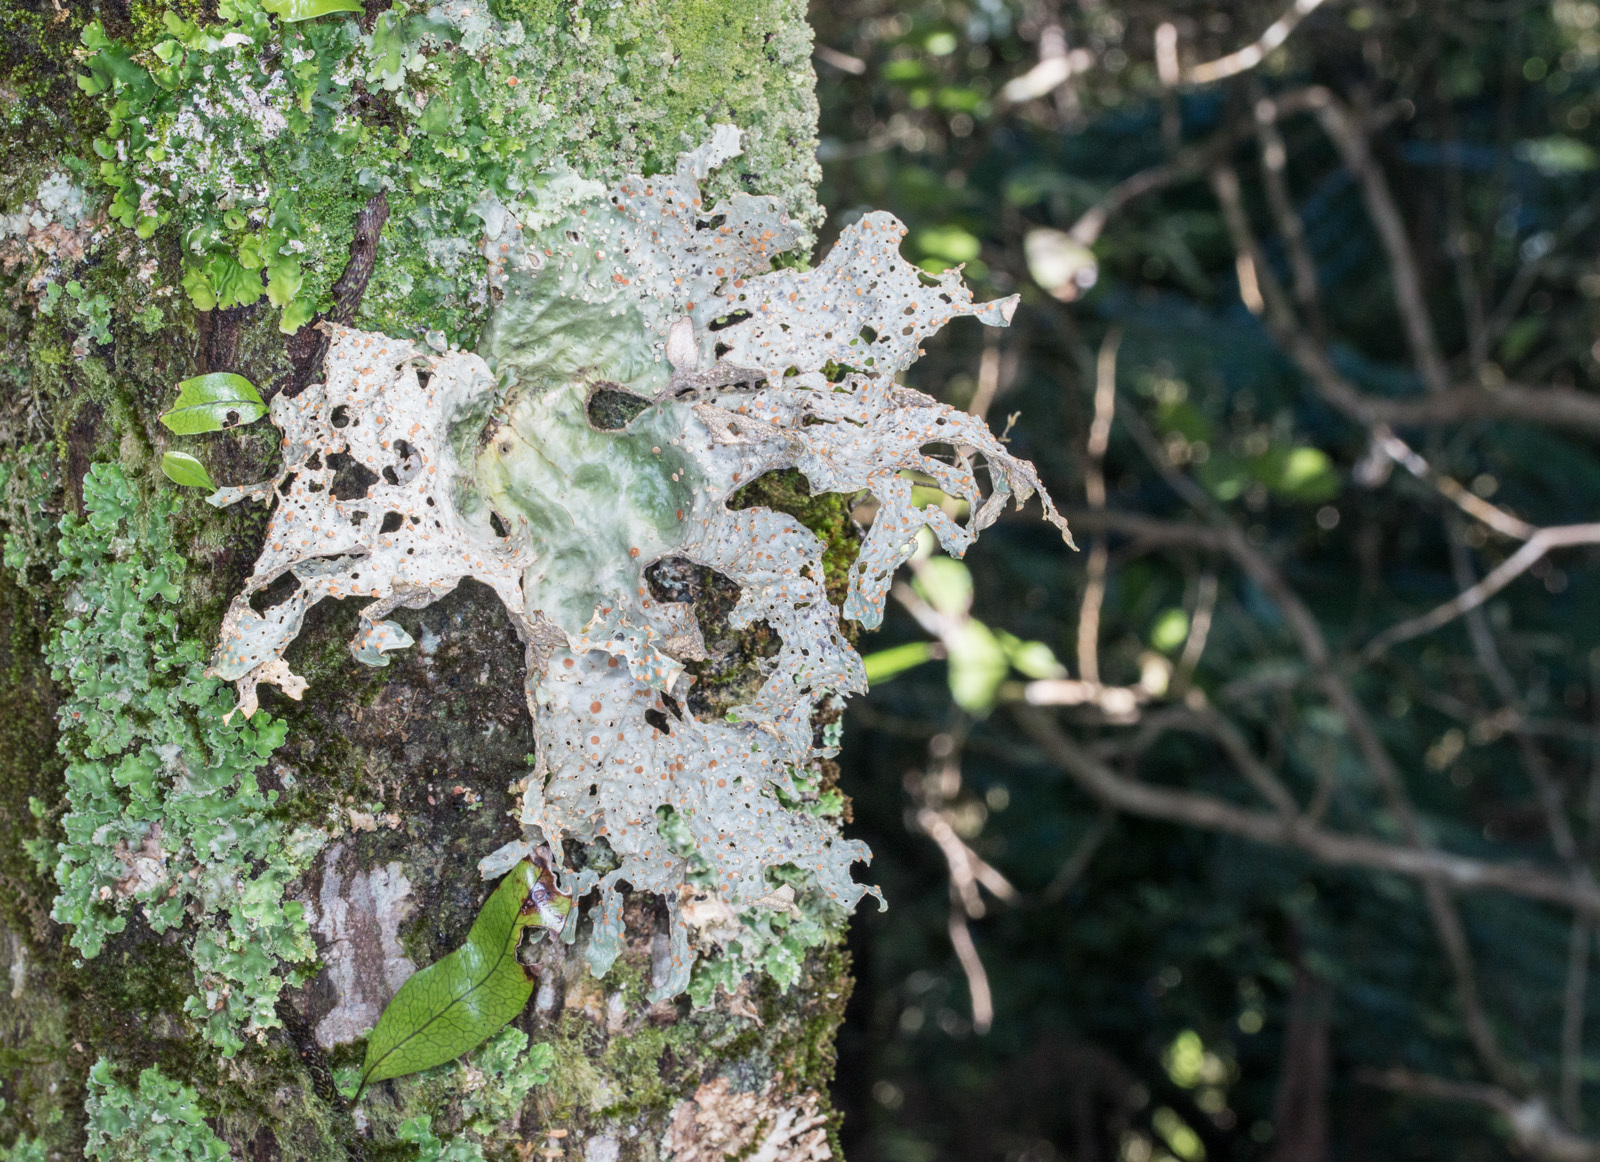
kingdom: Fungi
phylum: Ascomycota
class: Lecanoromycetes
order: Peltigerales
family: Lobariaceae
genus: Sticta
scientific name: Sticta latifrons
